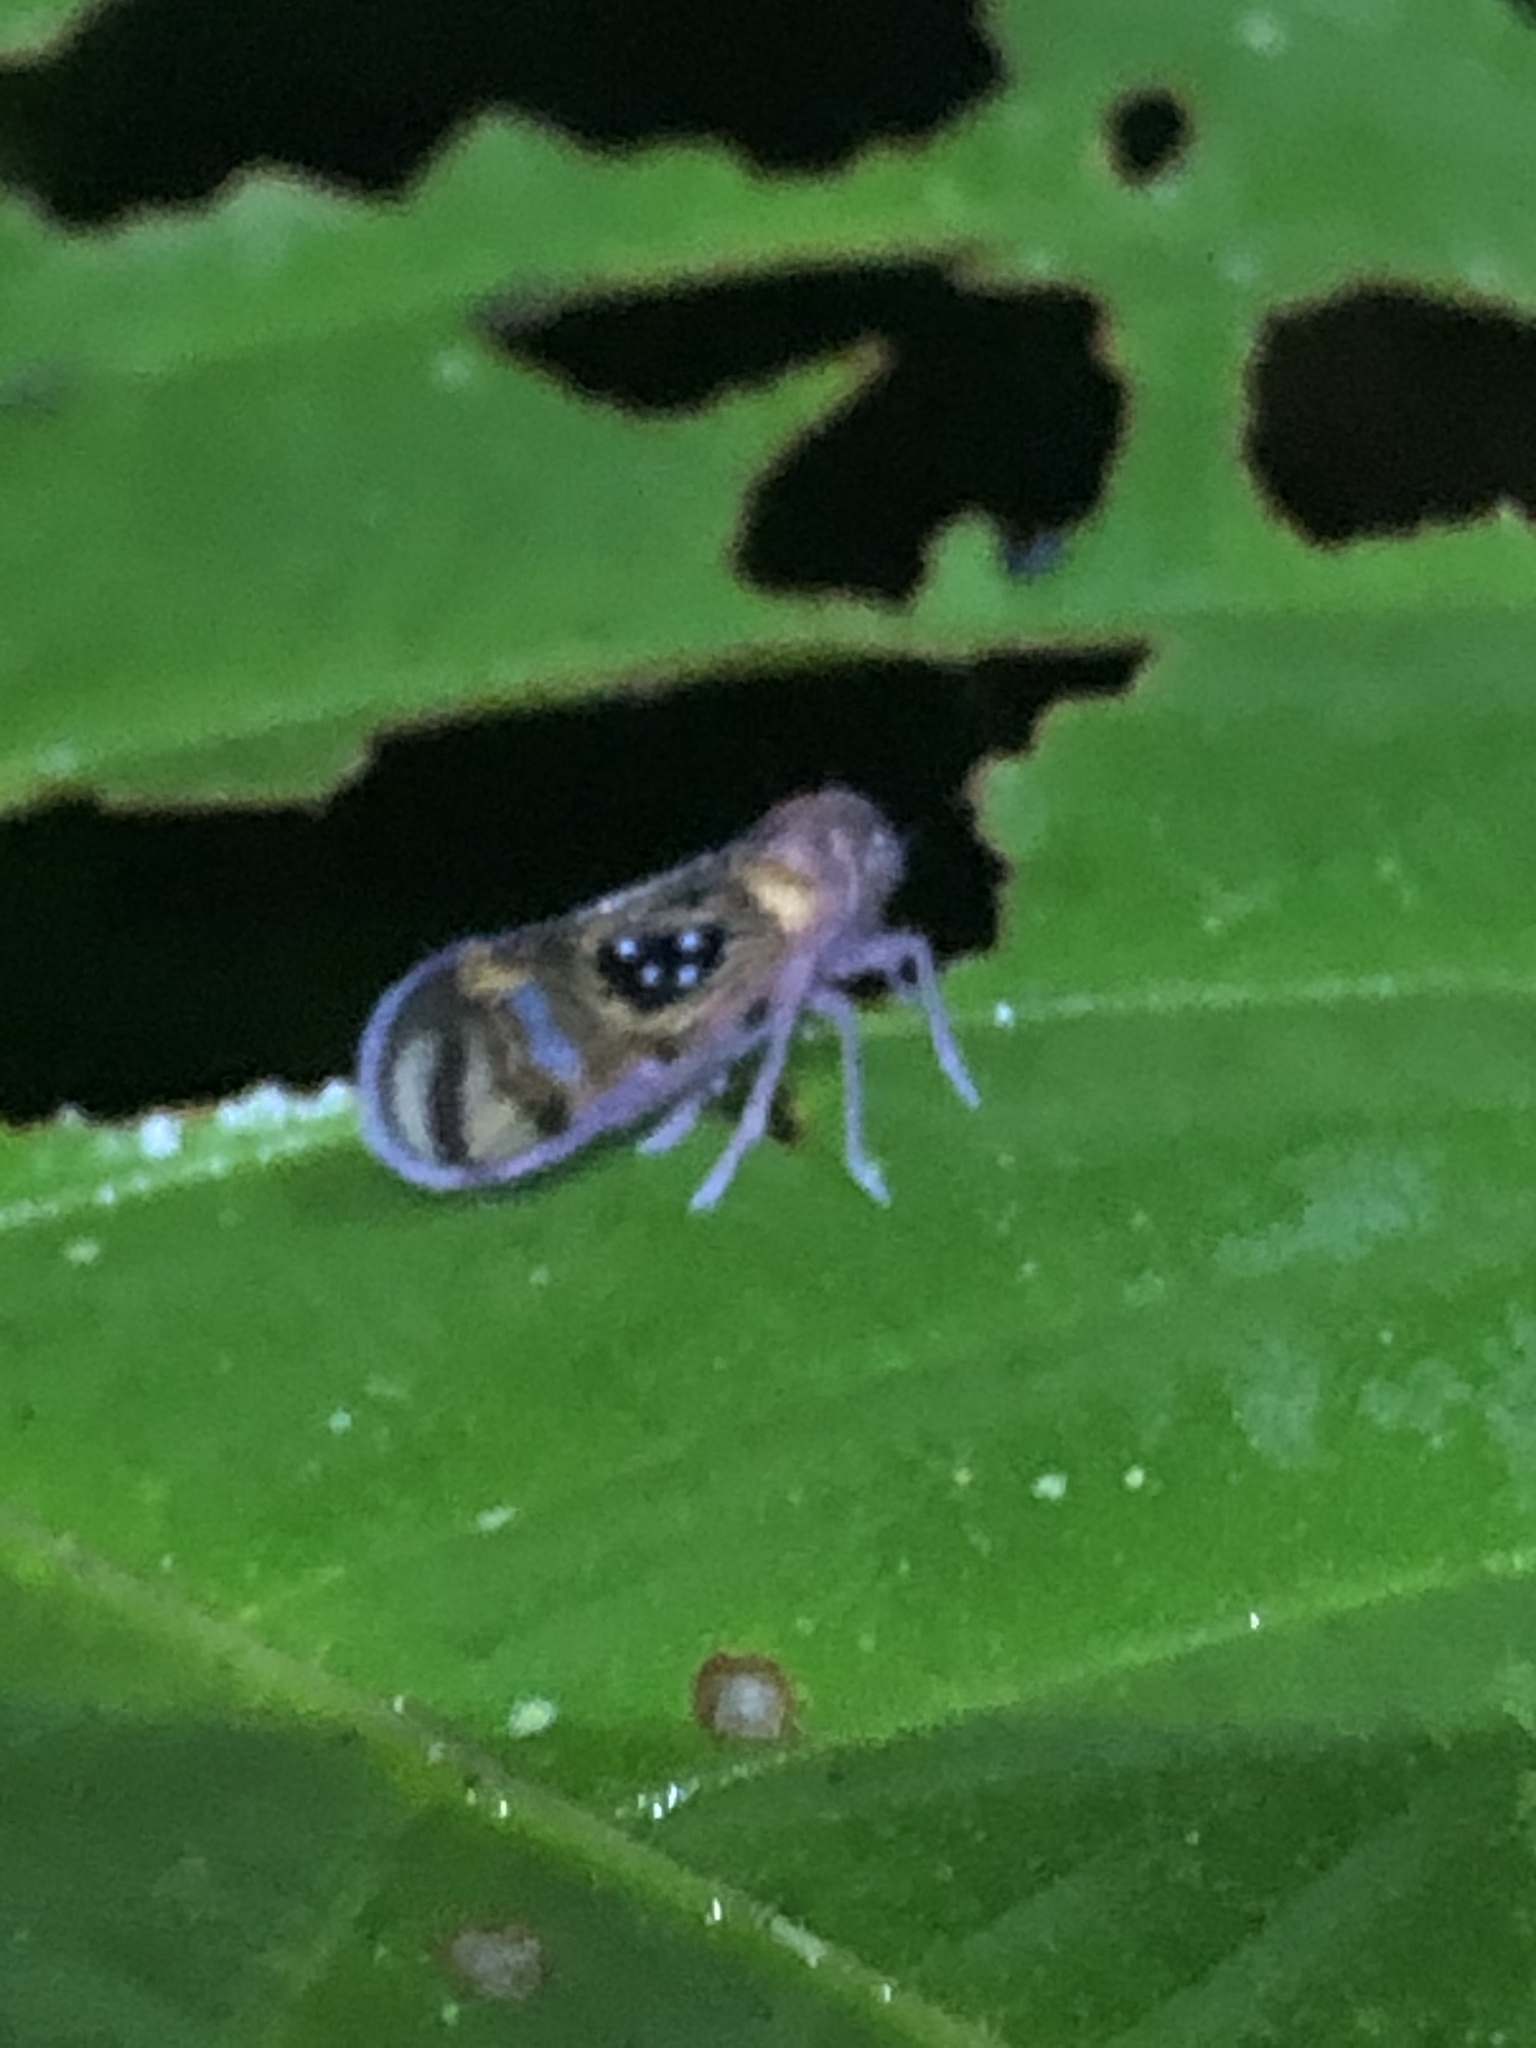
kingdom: Animalia
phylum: Arthropoda
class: Insecta
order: Hemiptera
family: Cixiidae
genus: Pintalia
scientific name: Pintalia
